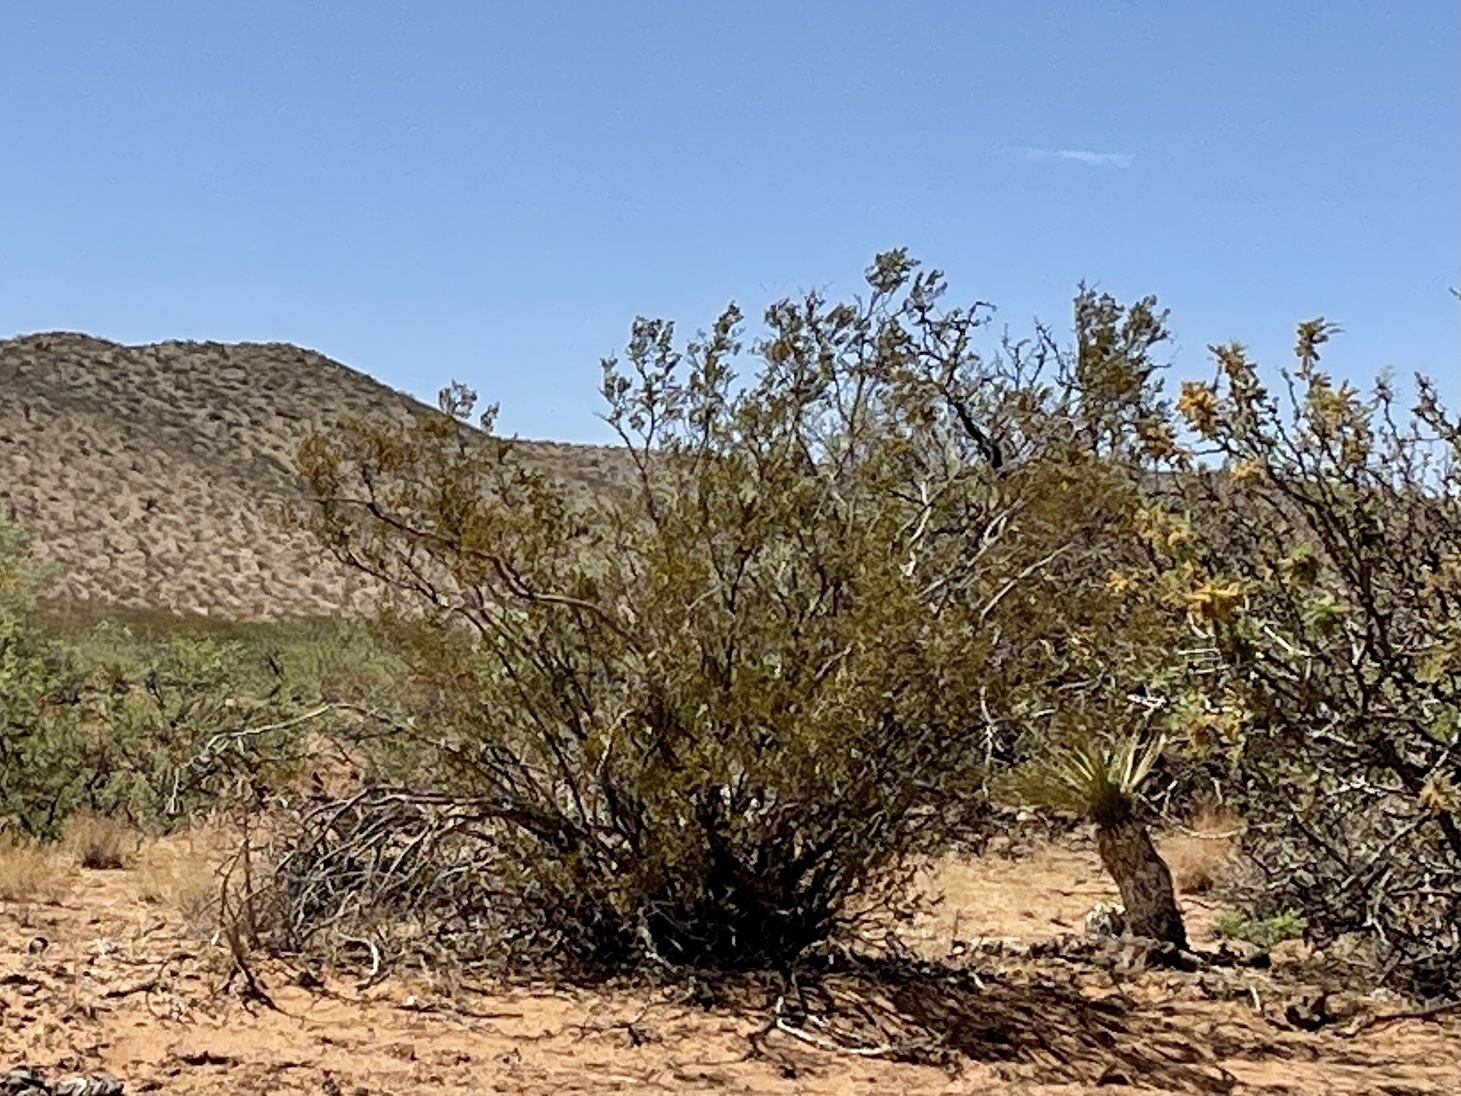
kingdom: Plantae
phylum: Tracheophyta
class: Magnoliopsida
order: Zygophyllales
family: Zygophyllaceae
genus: Larrea
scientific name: Larrea tridentata
